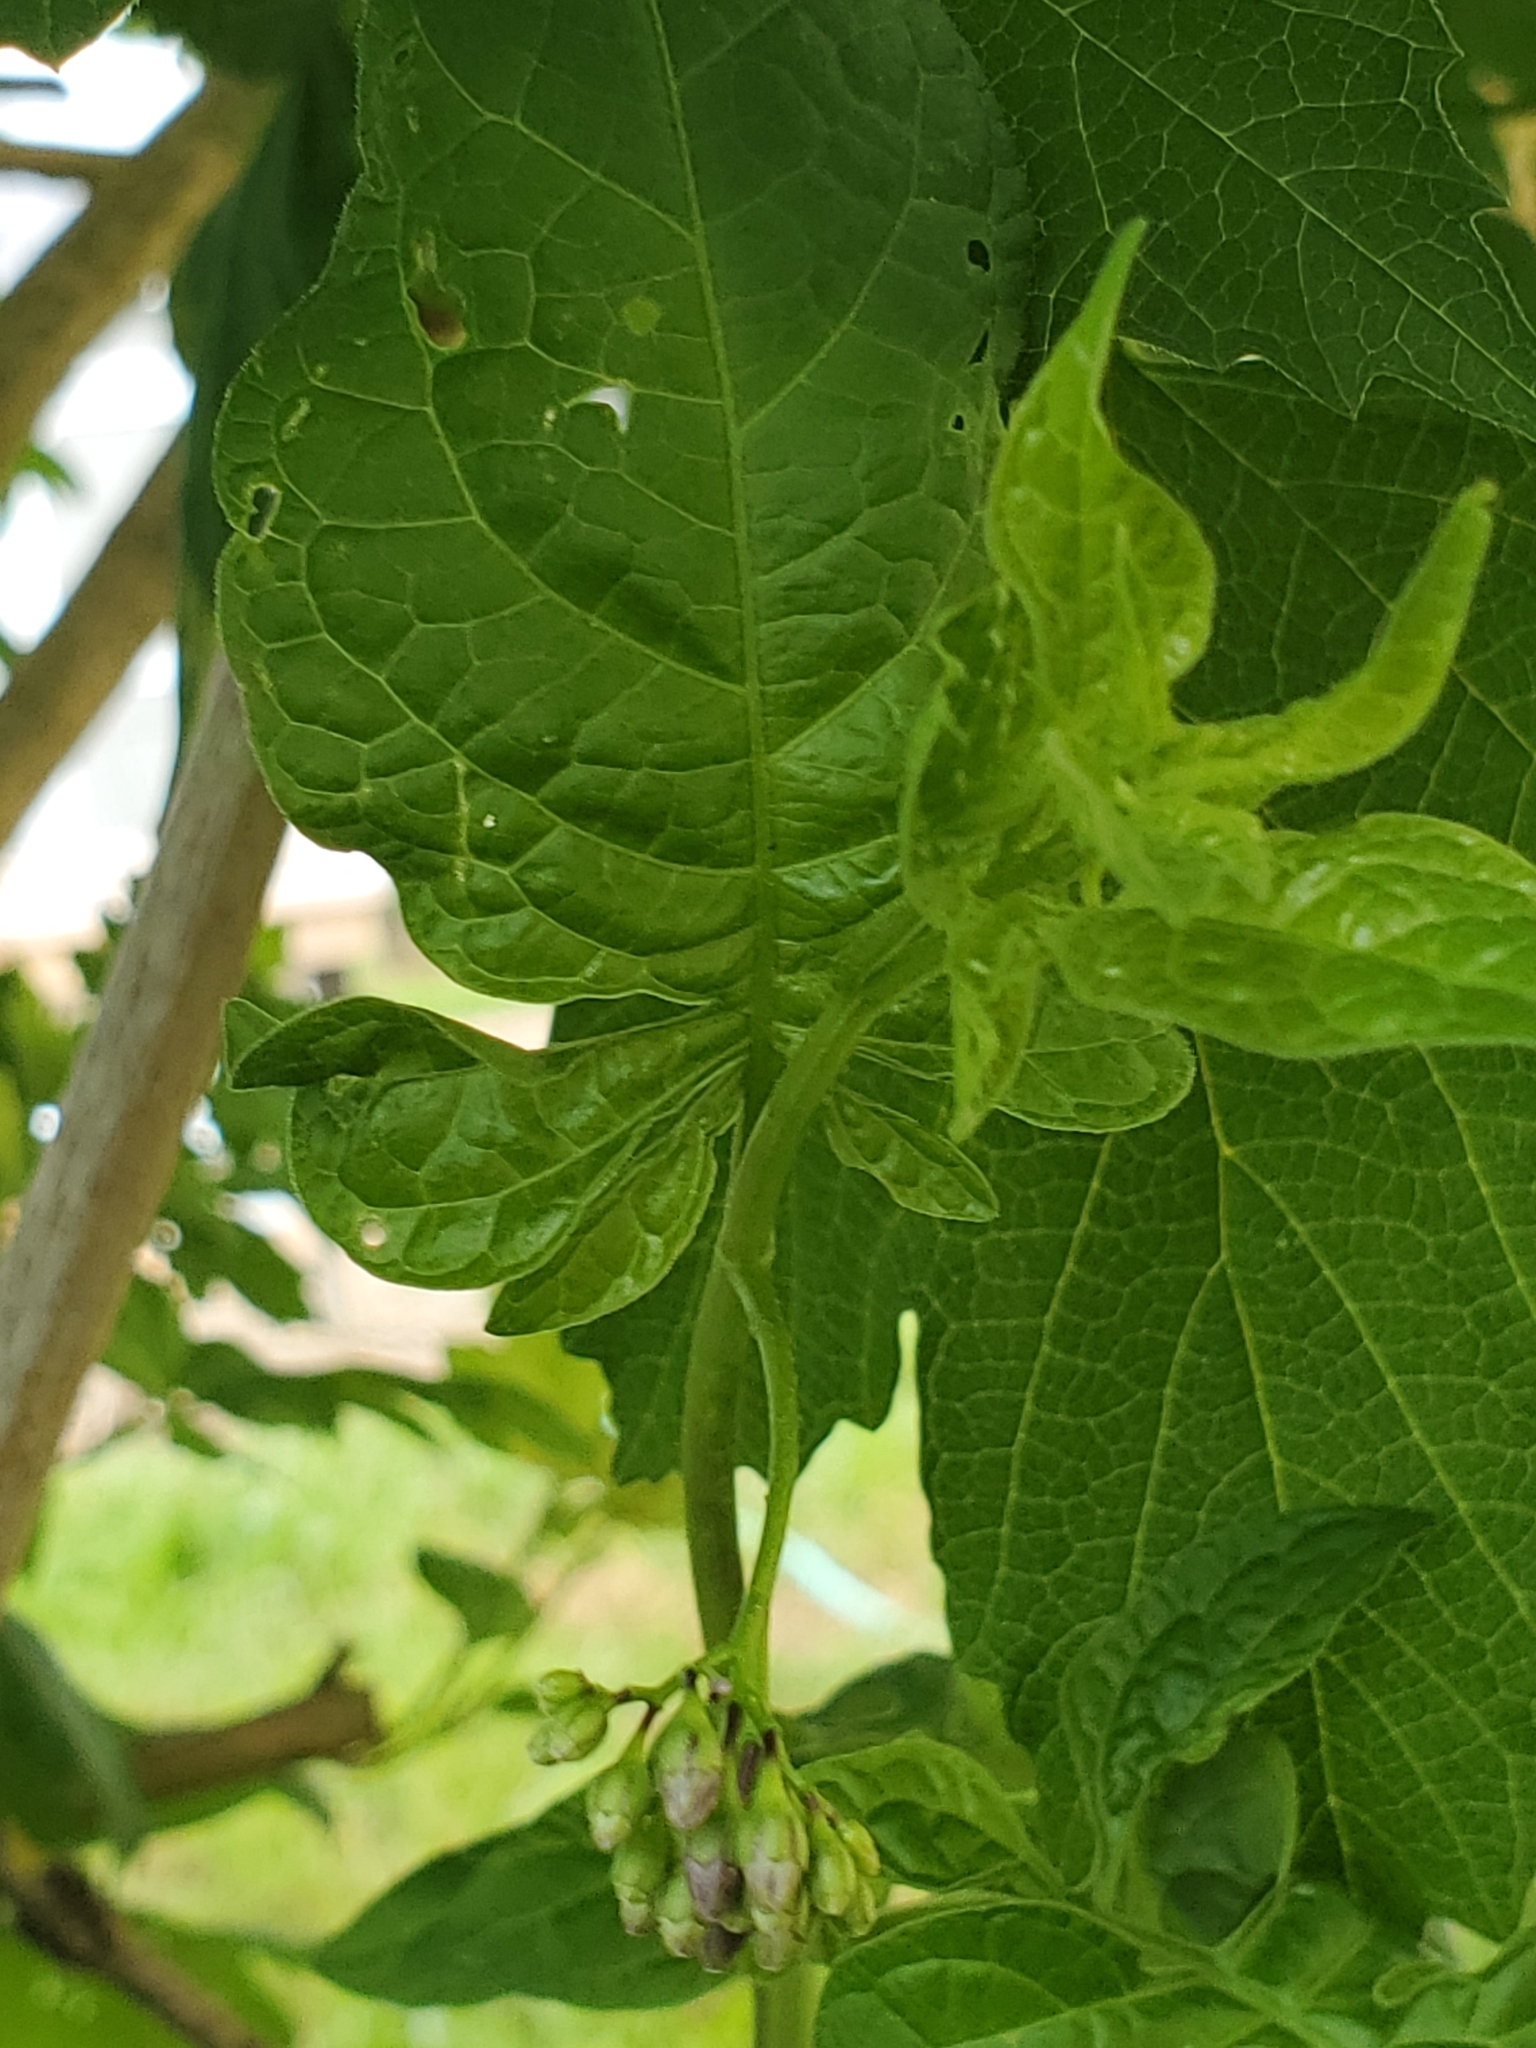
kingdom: Plantae
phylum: Tracheophyta
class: Magnoliopsida
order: Solanales
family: Solanaceae
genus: Solanum
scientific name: Solanum dulcamara
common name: Climbing nightshade
